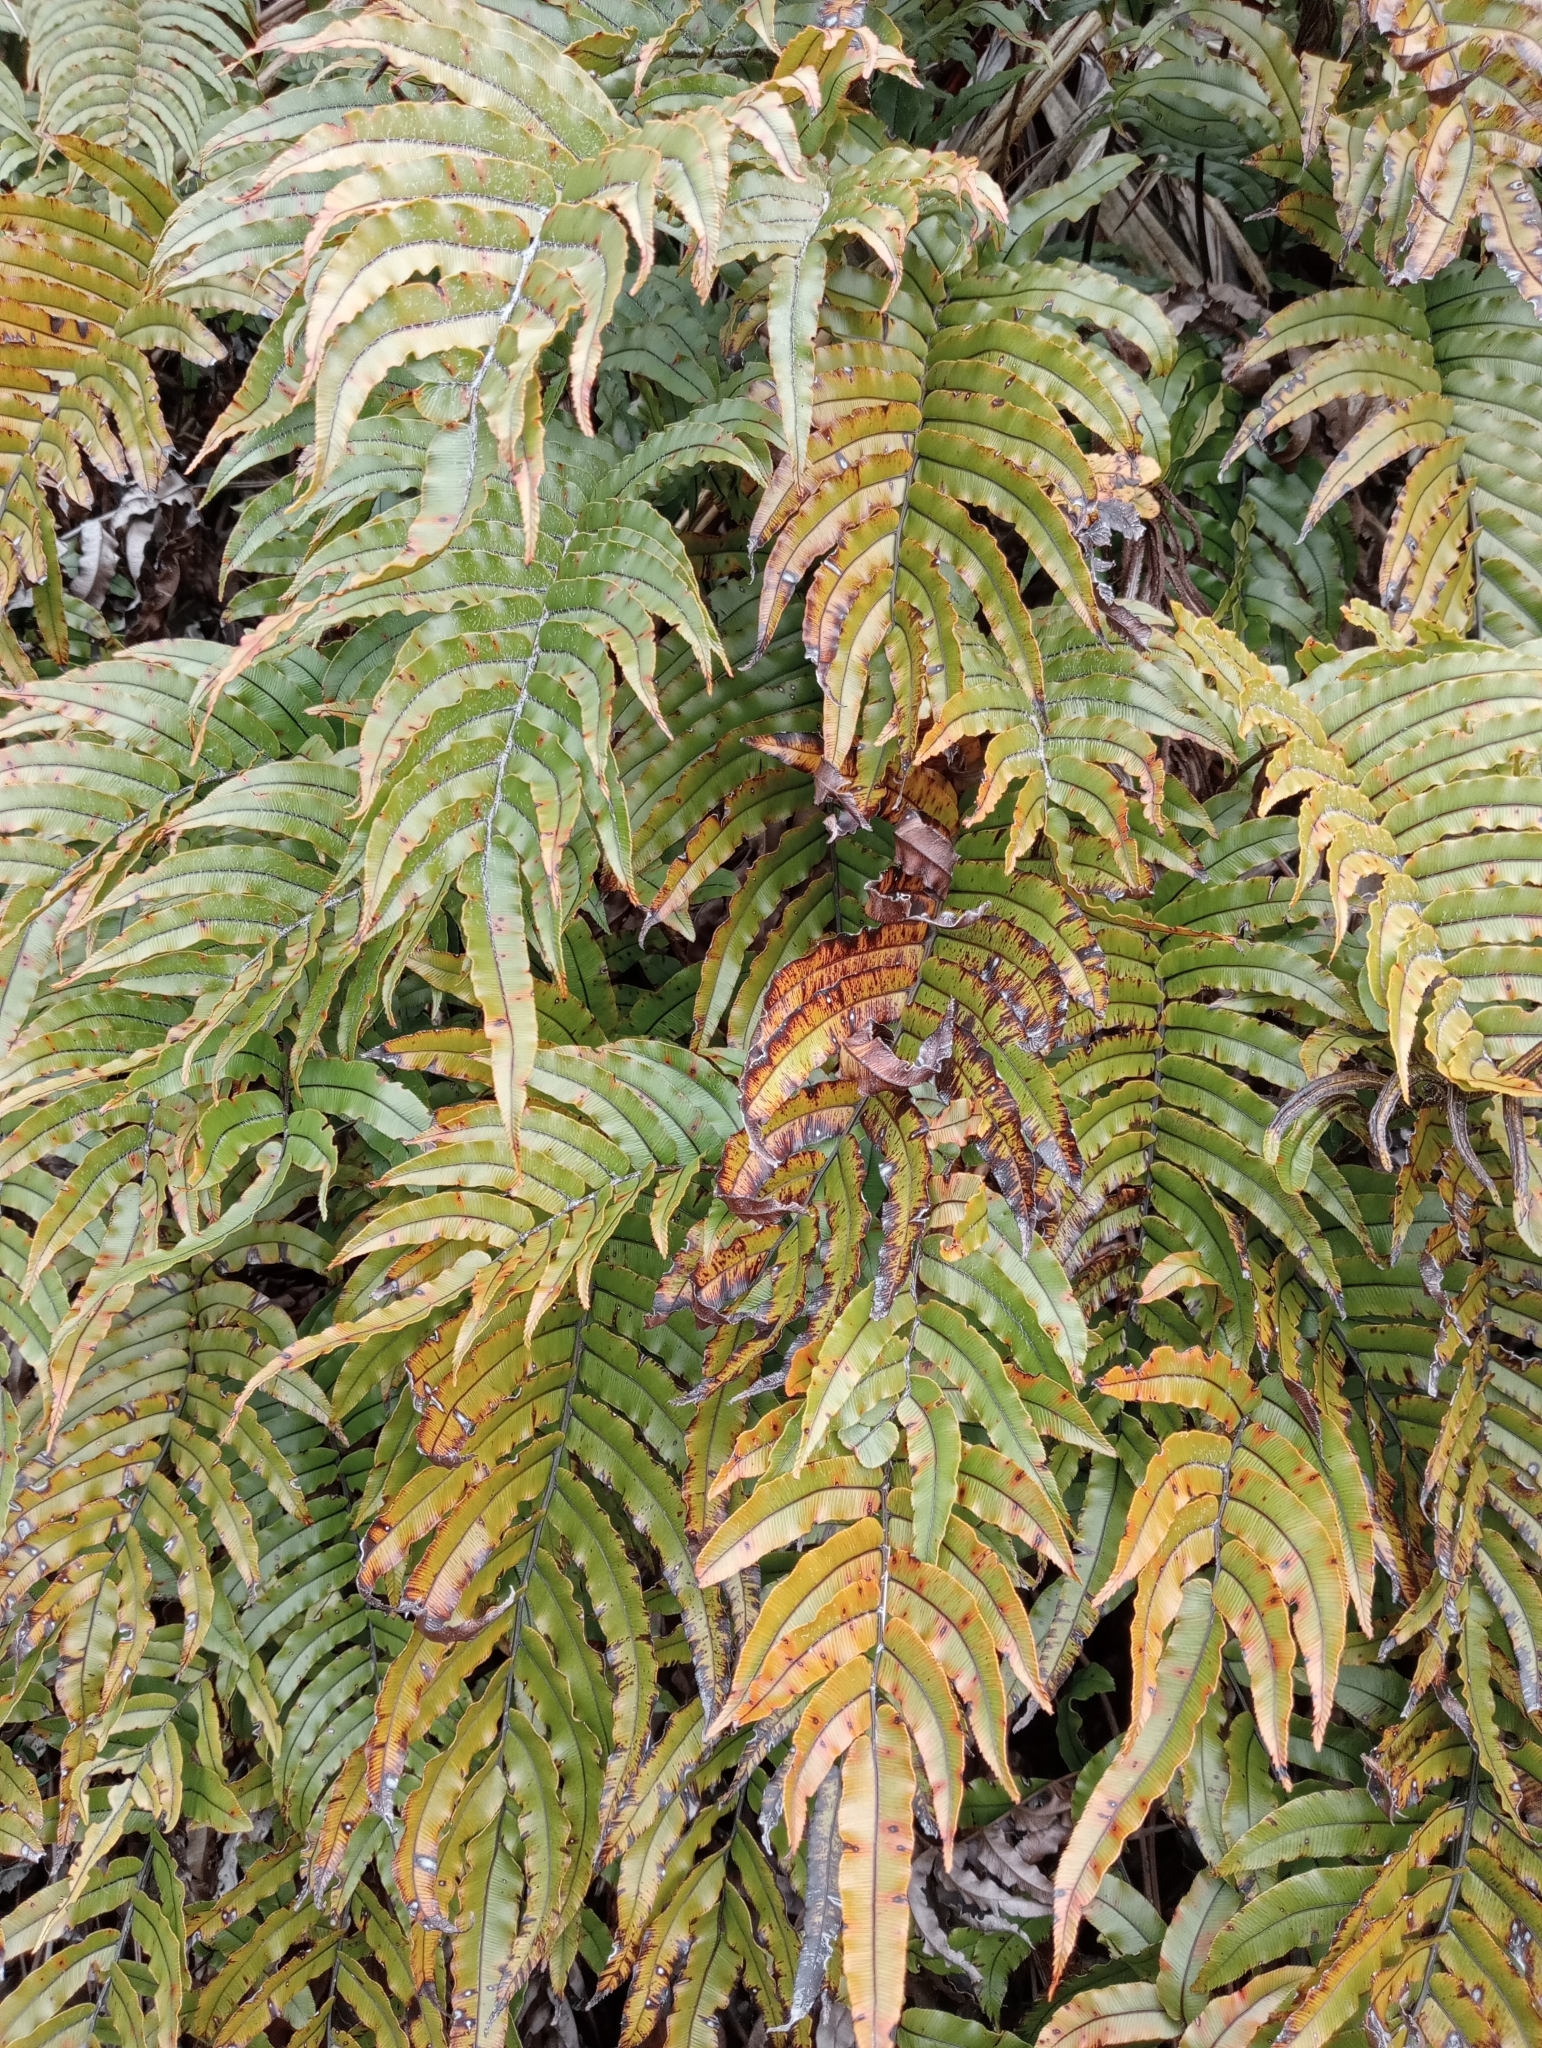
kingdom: Plantae
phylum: Tracheophyta
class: Polypodiopsida
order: Polypodiales
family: Blechnaceae
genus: Parablechnum
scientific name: Parablechnum montanum
